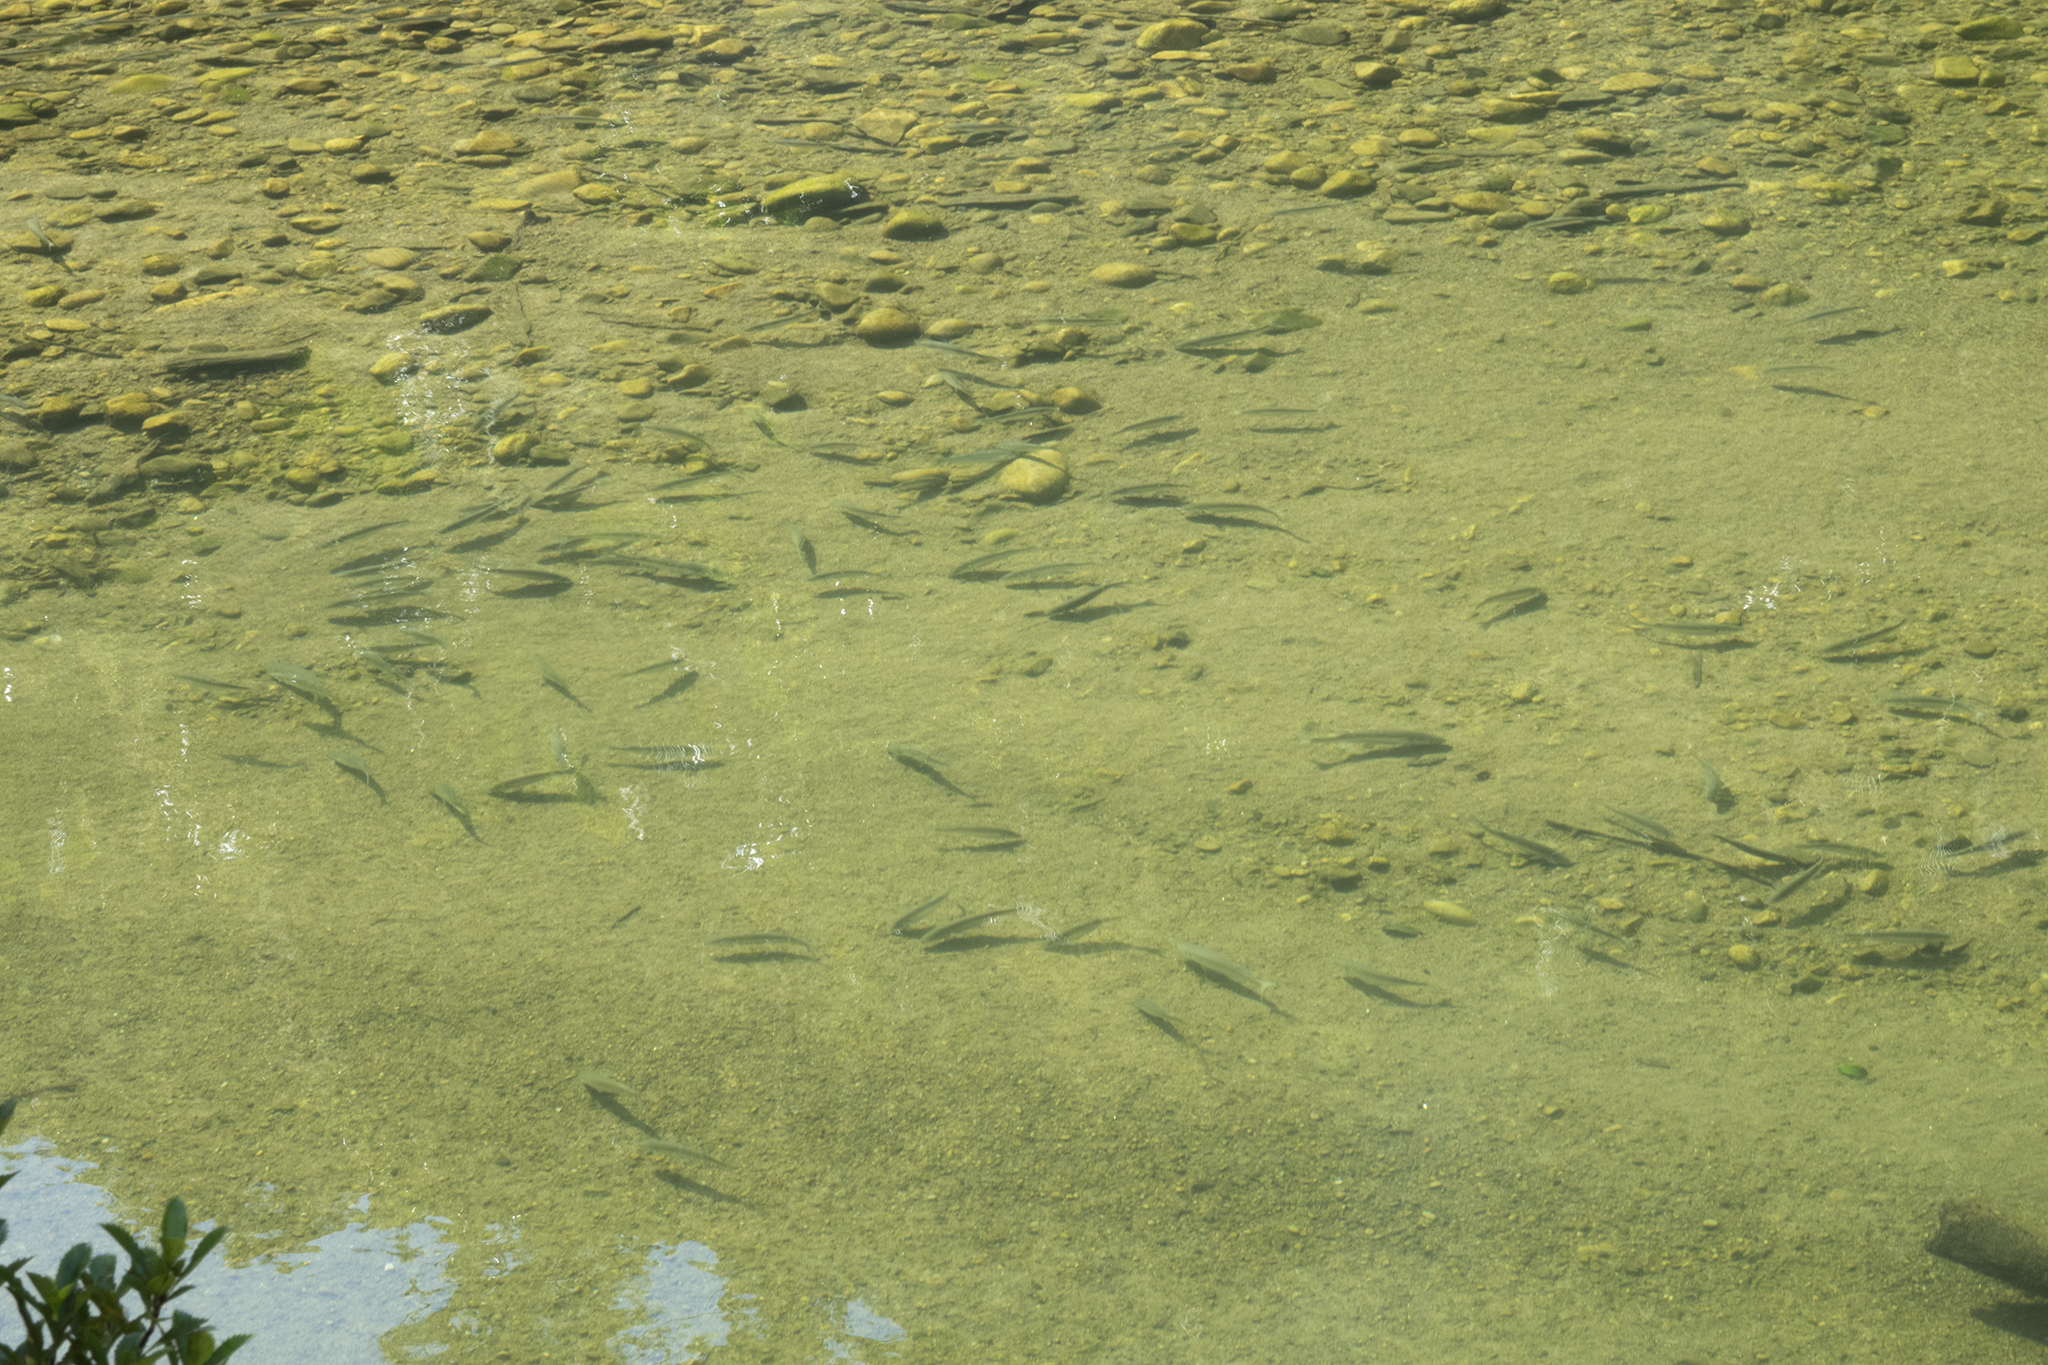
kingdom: Animalia
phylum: Chordata
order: Mugiliformes
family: Mugilidae
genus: Aldrichetta
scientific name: Aldrichetta forsteri
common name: Yellow-eye mullet
